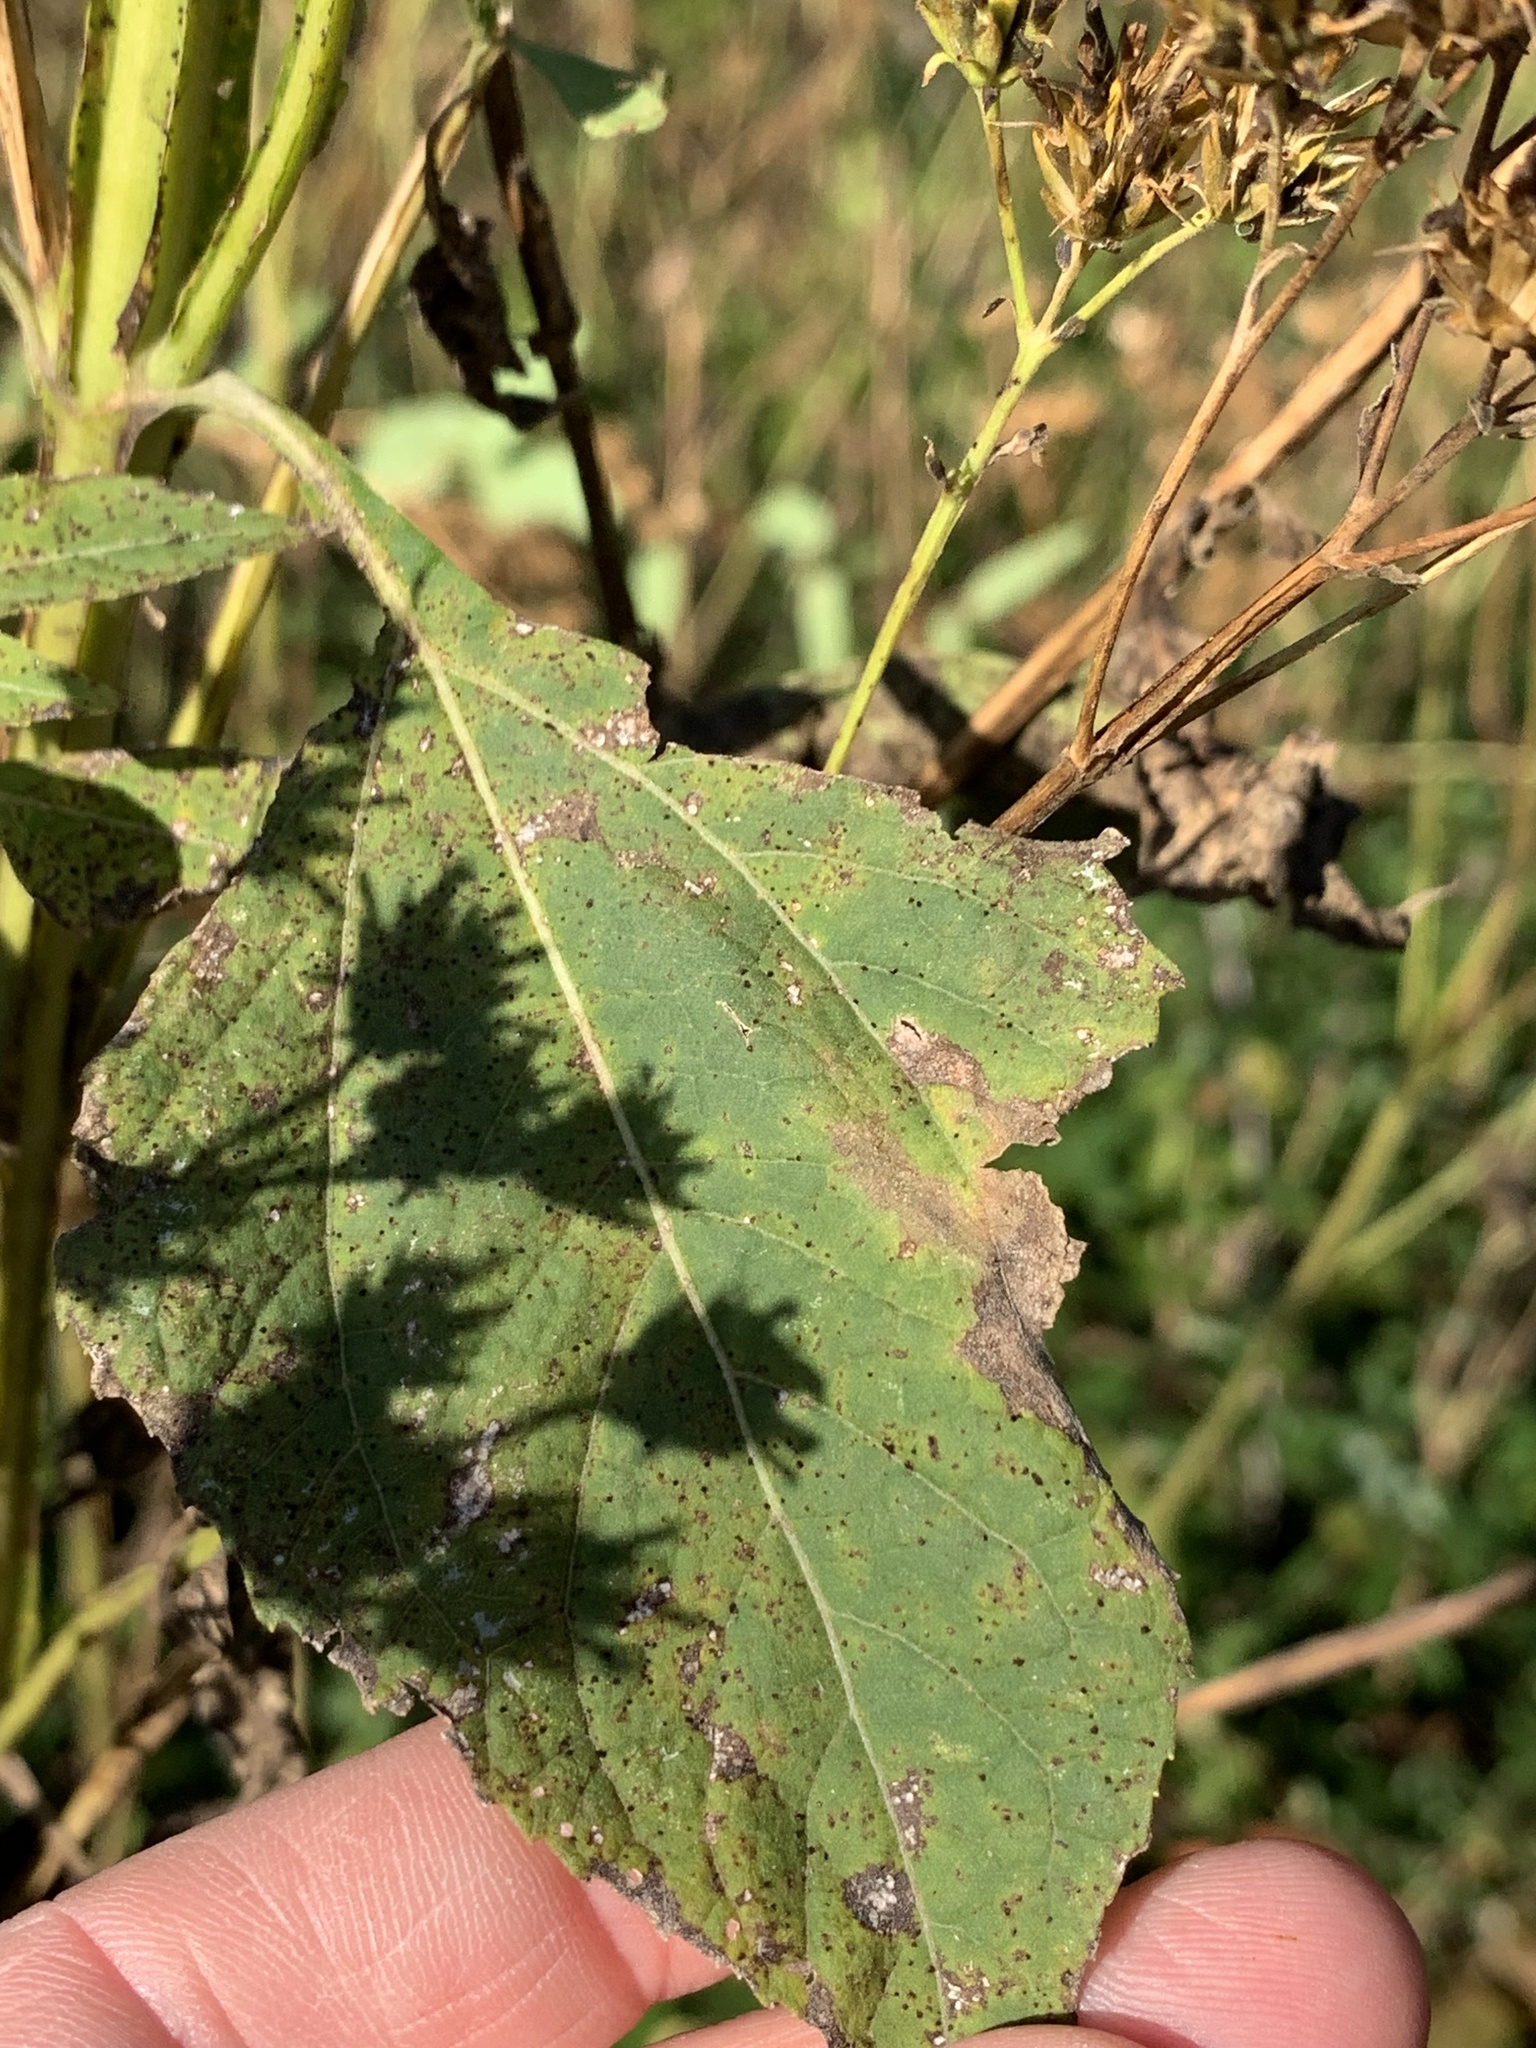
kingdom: Plantae
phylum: Tracheophyta
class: Magnoliopsida
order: Asterales
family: Asteraceae
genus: Verbesina
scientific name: Verbesina occidentalis
